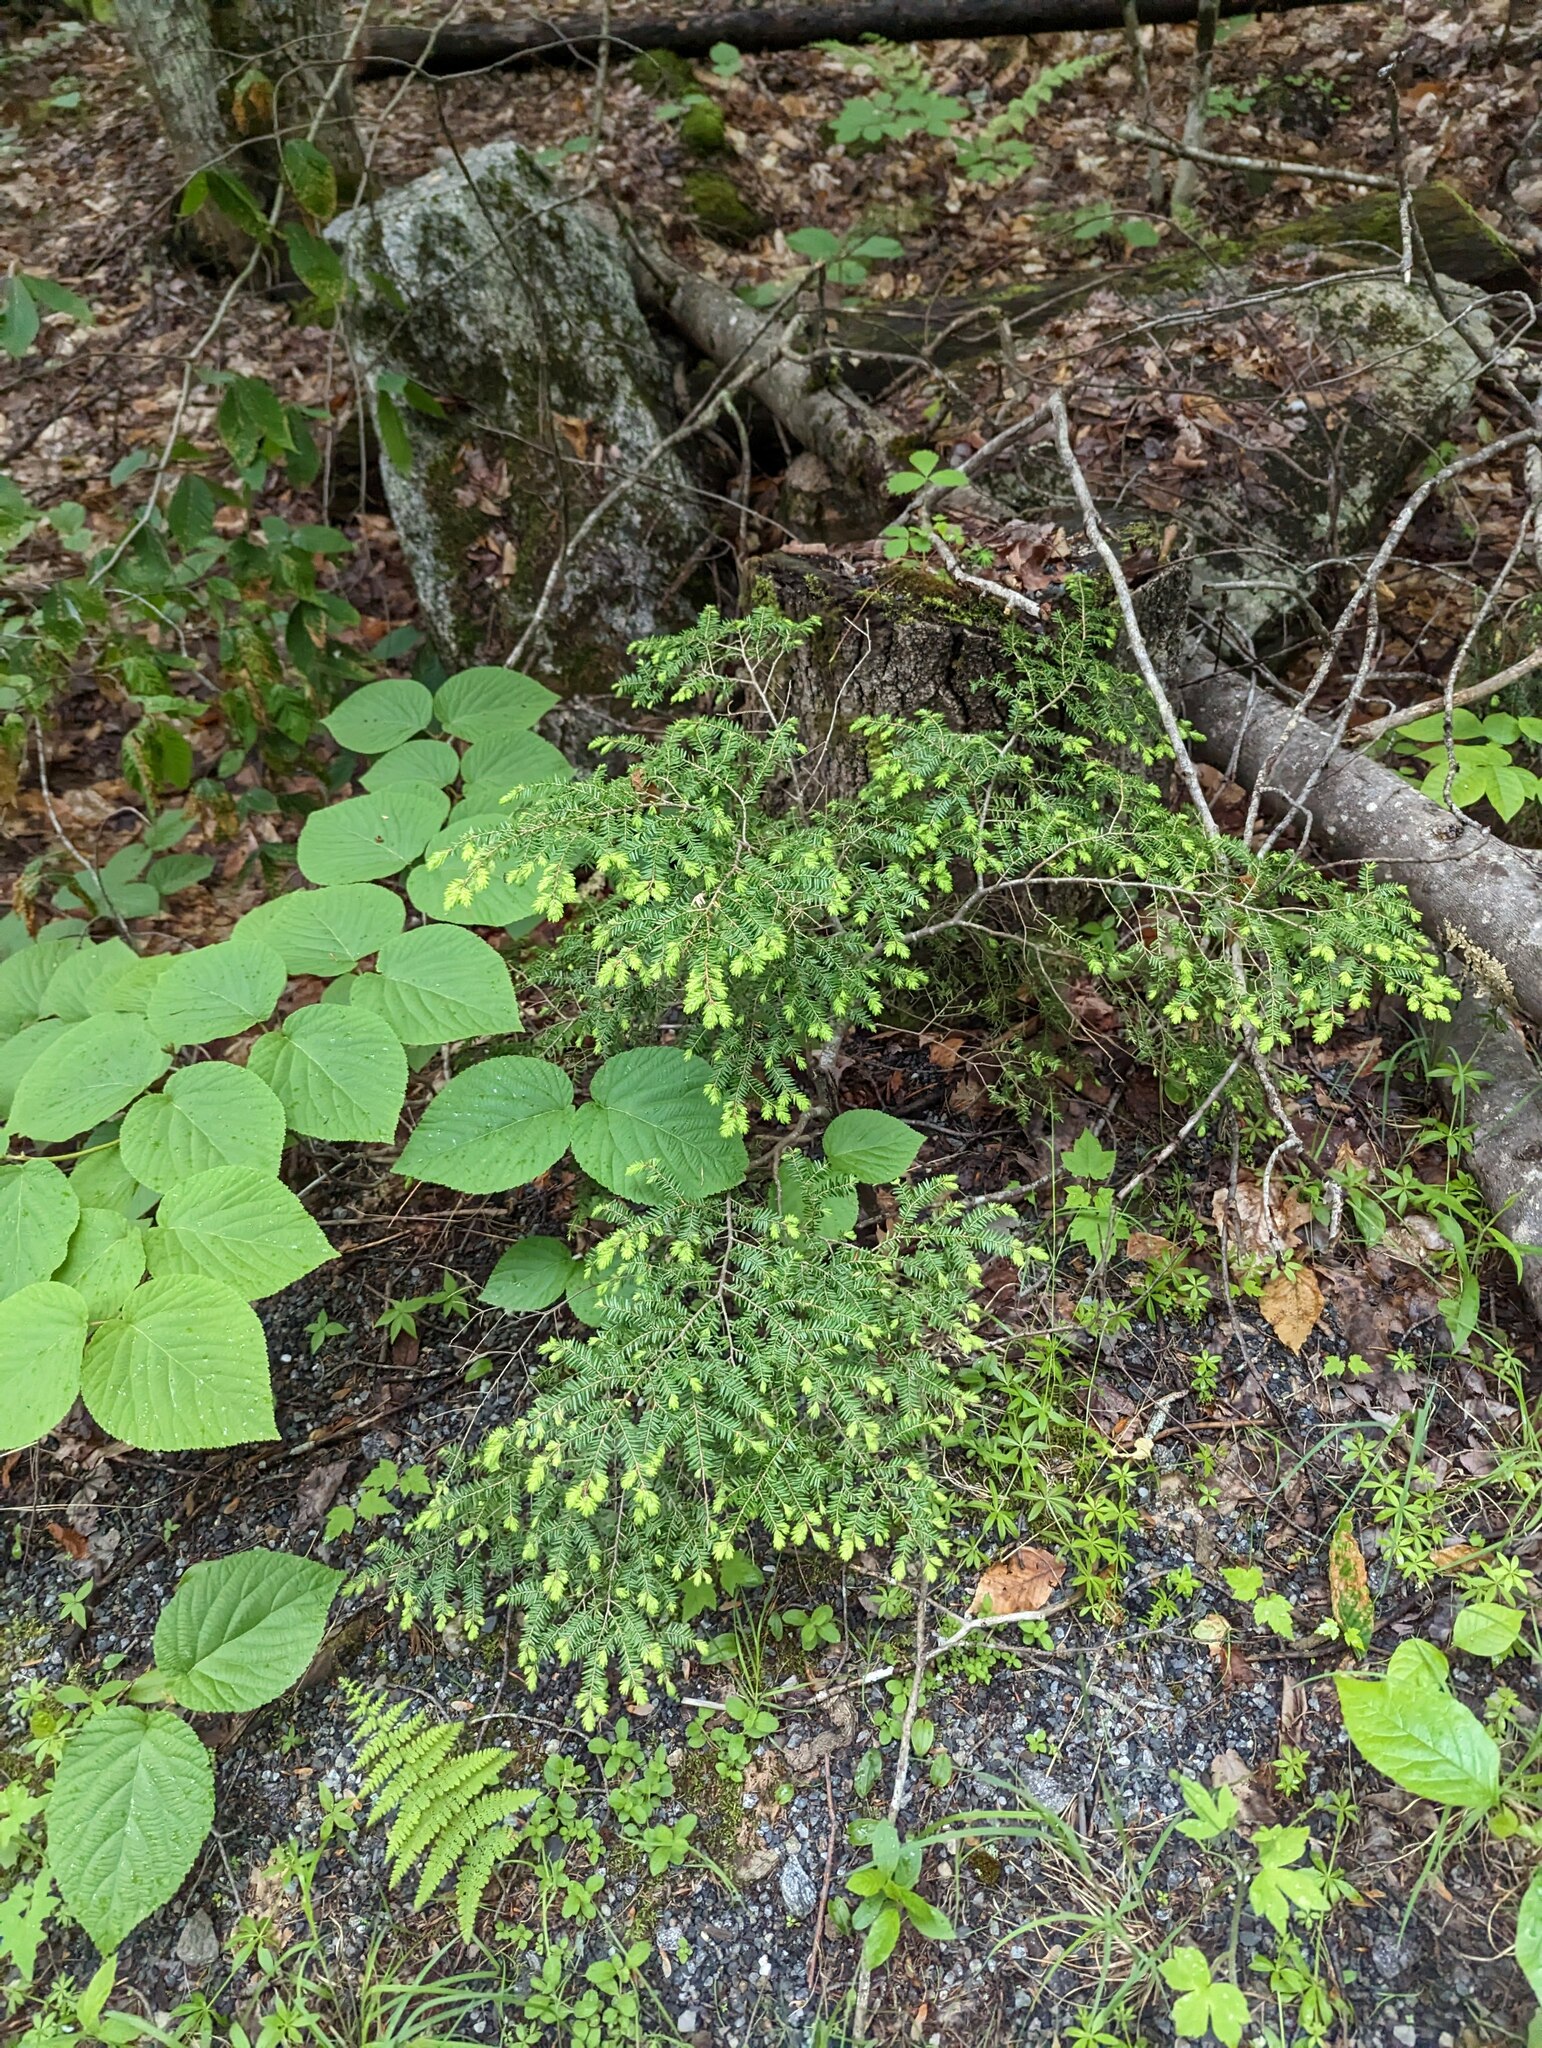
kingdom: Plantae
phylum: Tracheophyta
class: Pinopsida
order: Pinales
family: Pinaceae
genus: Tsuga
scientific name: Tsuga canadensis
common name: Eastern hemlock
